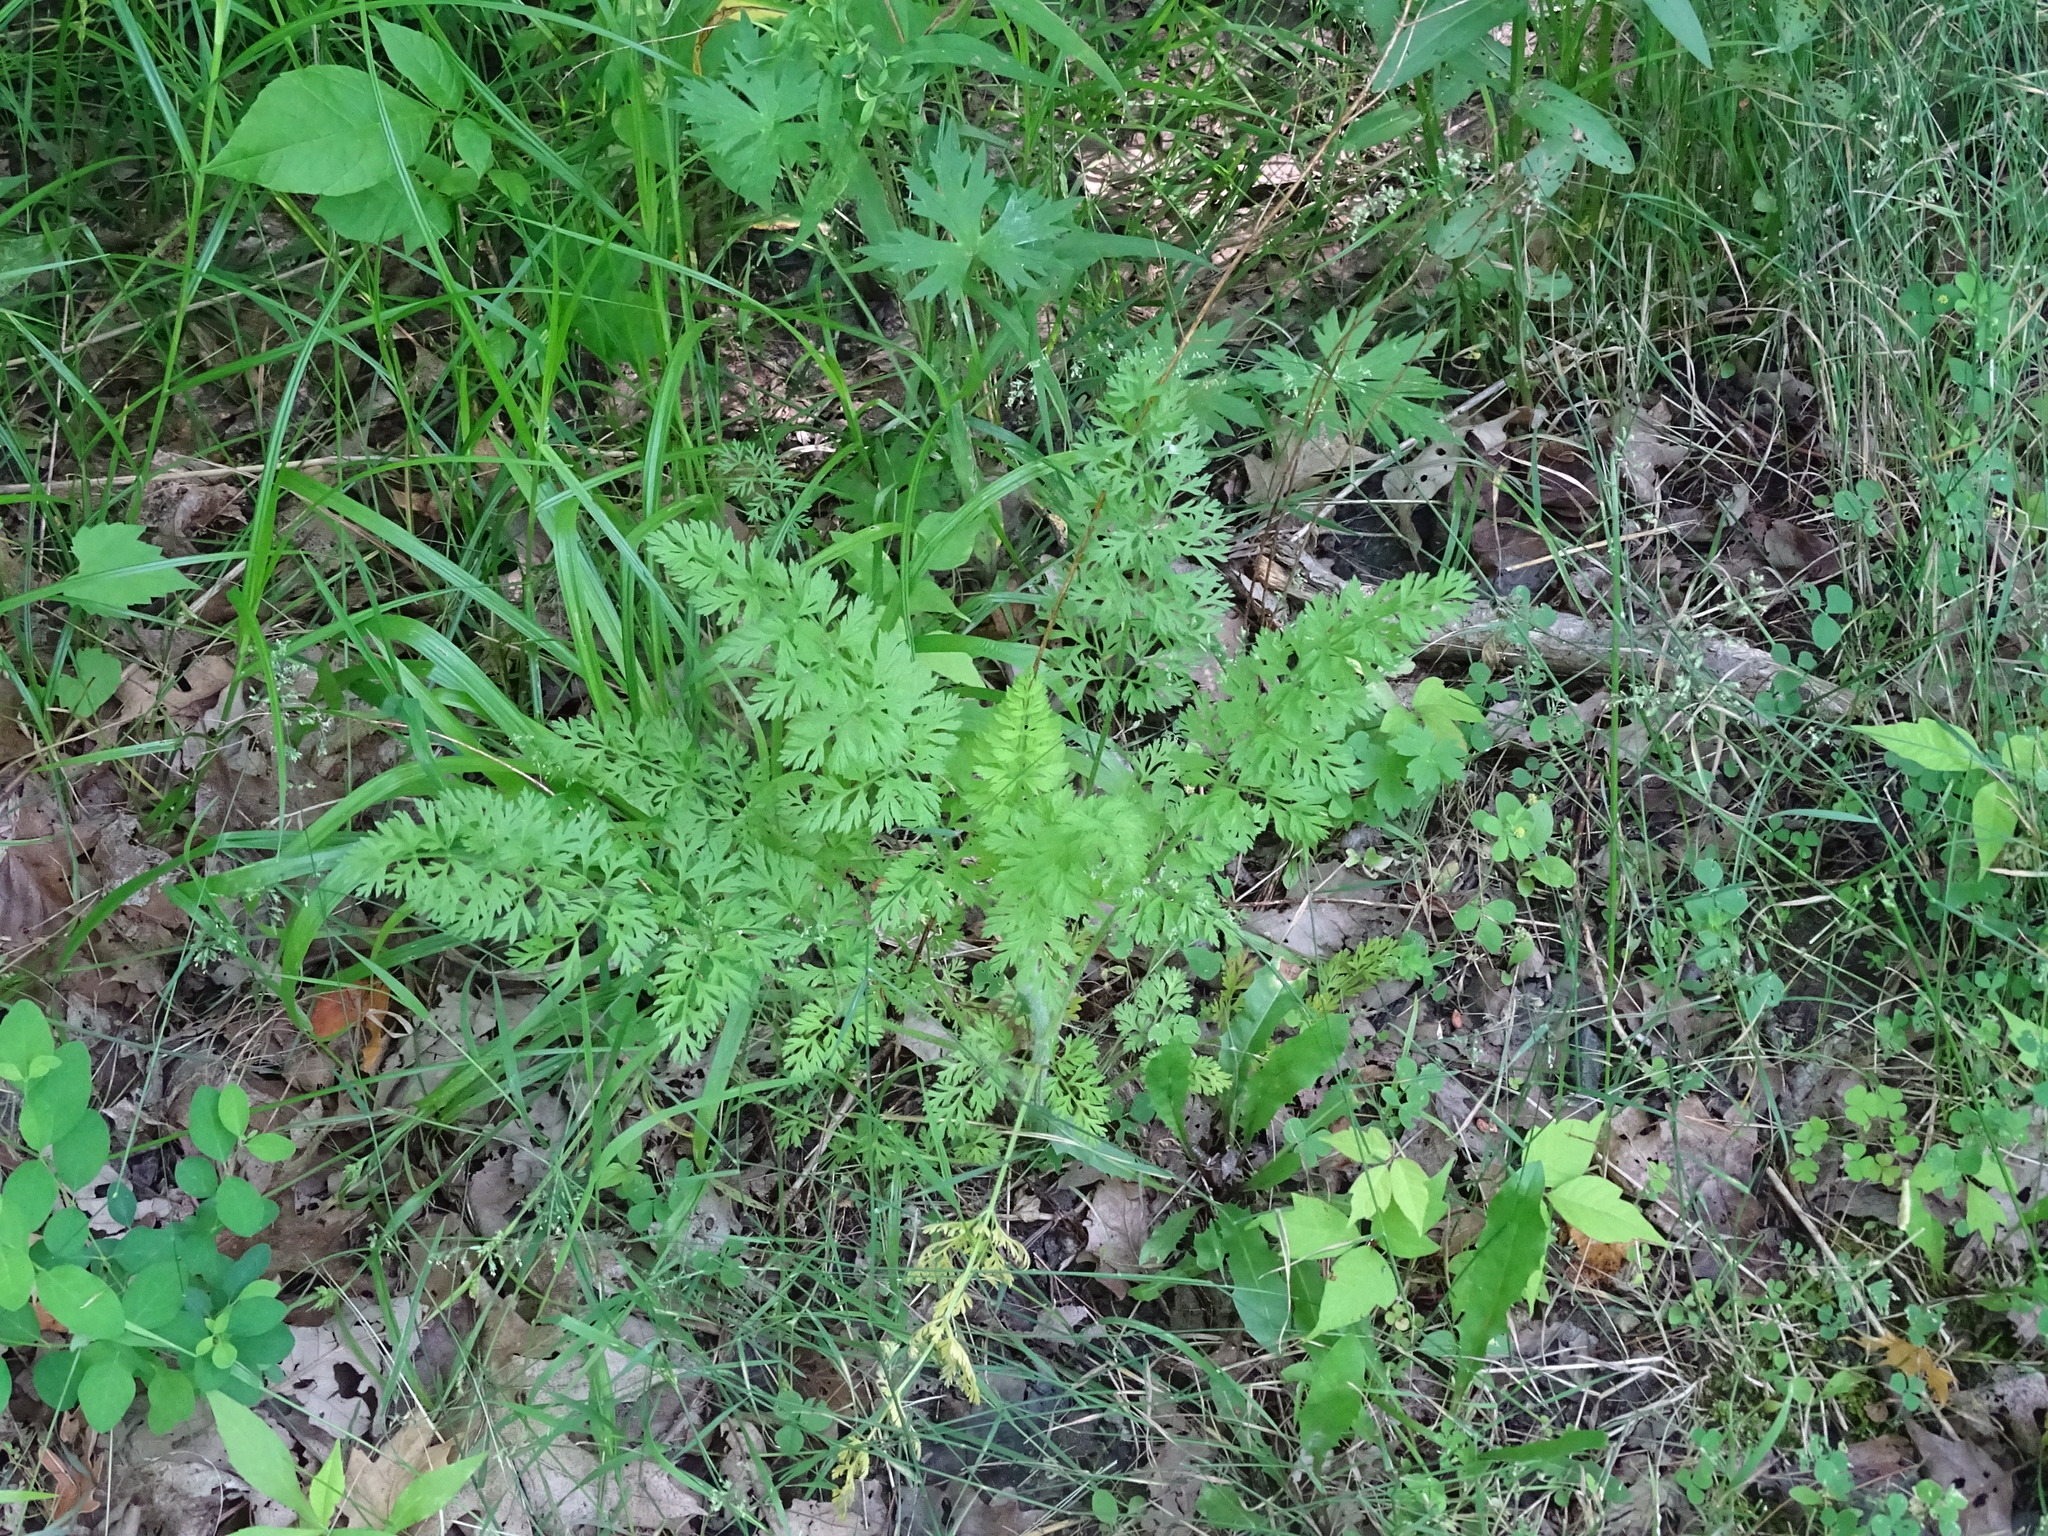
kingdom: Plantae
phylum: Tracheophyta
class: Magnoliopsida
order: Apiales
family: Apiaceae
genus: Daucus
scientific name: Daucus carota
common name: Wild carrot
